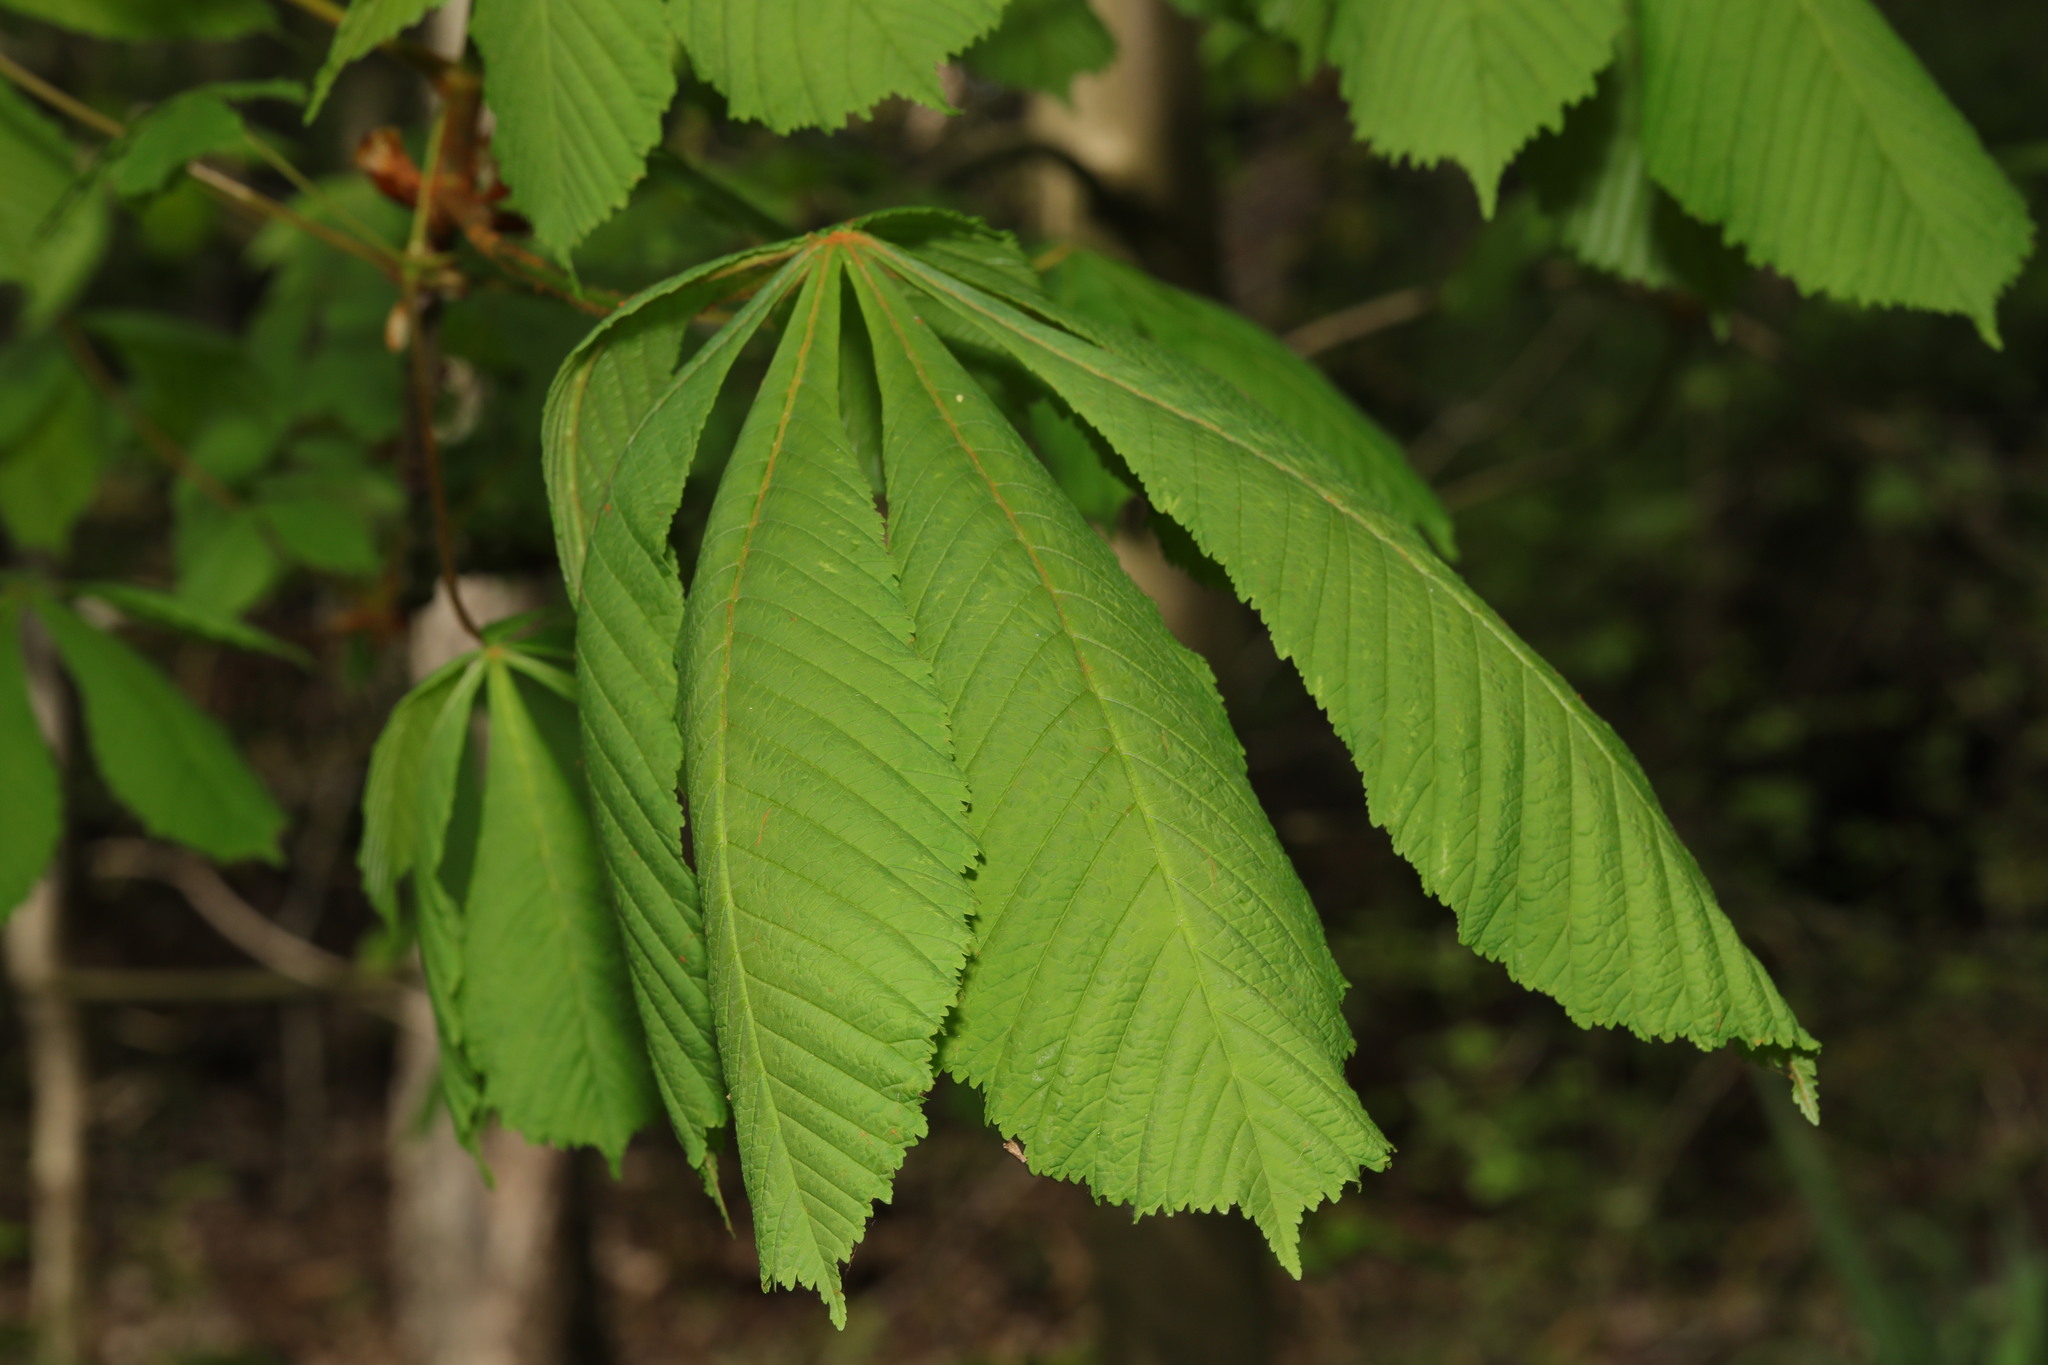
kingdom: Plantae
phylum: Tracheophyta
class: Magnoliopsida
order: Sapindales
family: Sapindaceae
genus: Aesculus
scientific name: Aesculus hippocastanum
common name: Horse-chestnut
